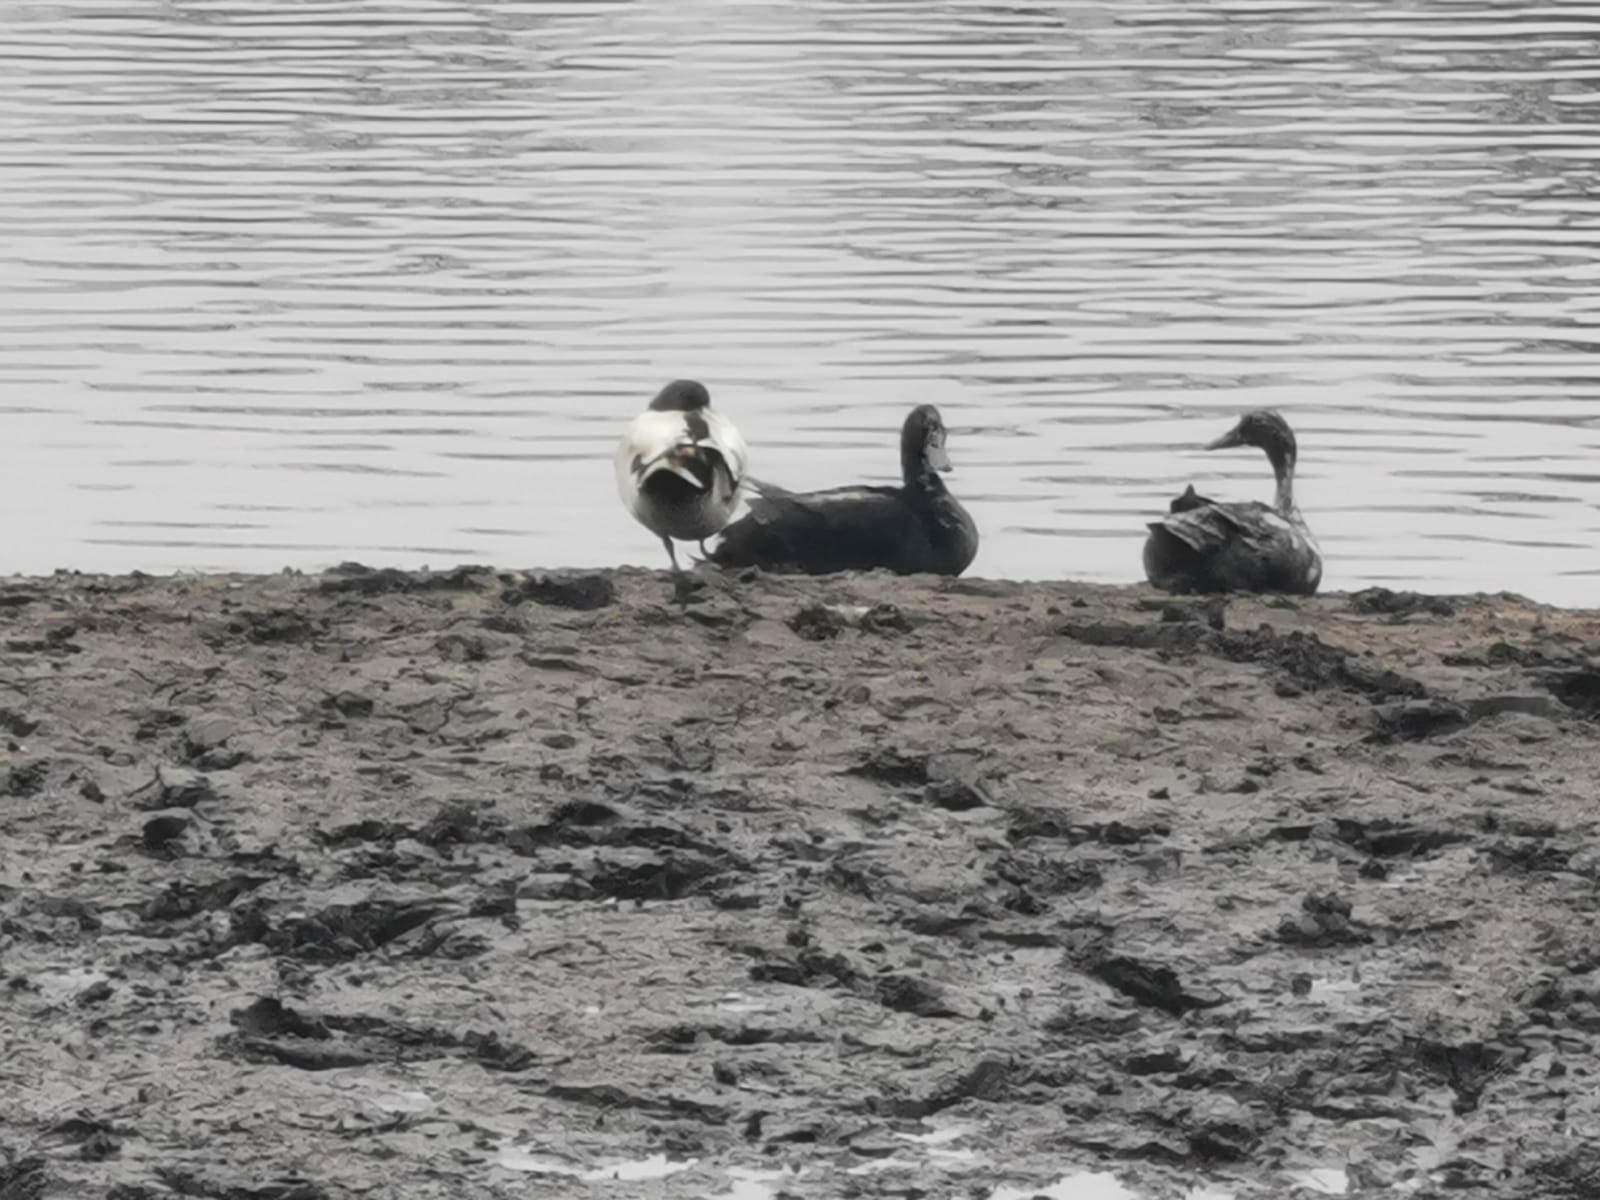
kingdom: Animalia
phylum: Chordata
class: Aves
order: Anseriformes
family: Anatidae
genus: Anas
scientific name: Anas platyrhynchos
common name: Mallard
